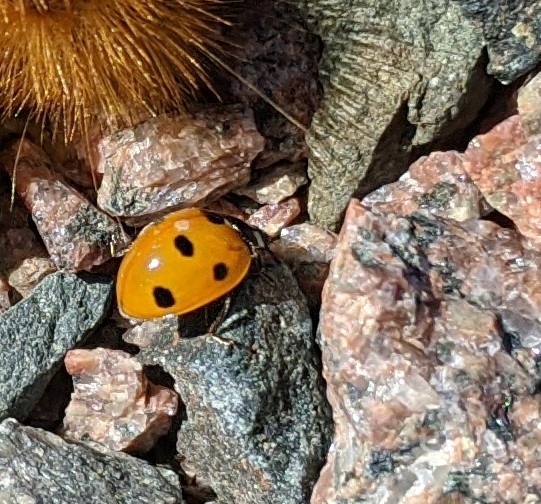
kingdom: Animalia
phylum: Arthropoda
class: Insecta
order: Coleoptera
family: Coccinellidae
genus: Coccinella
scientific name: Coccinella septempunctata
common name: Sevenspotted lady beetle
